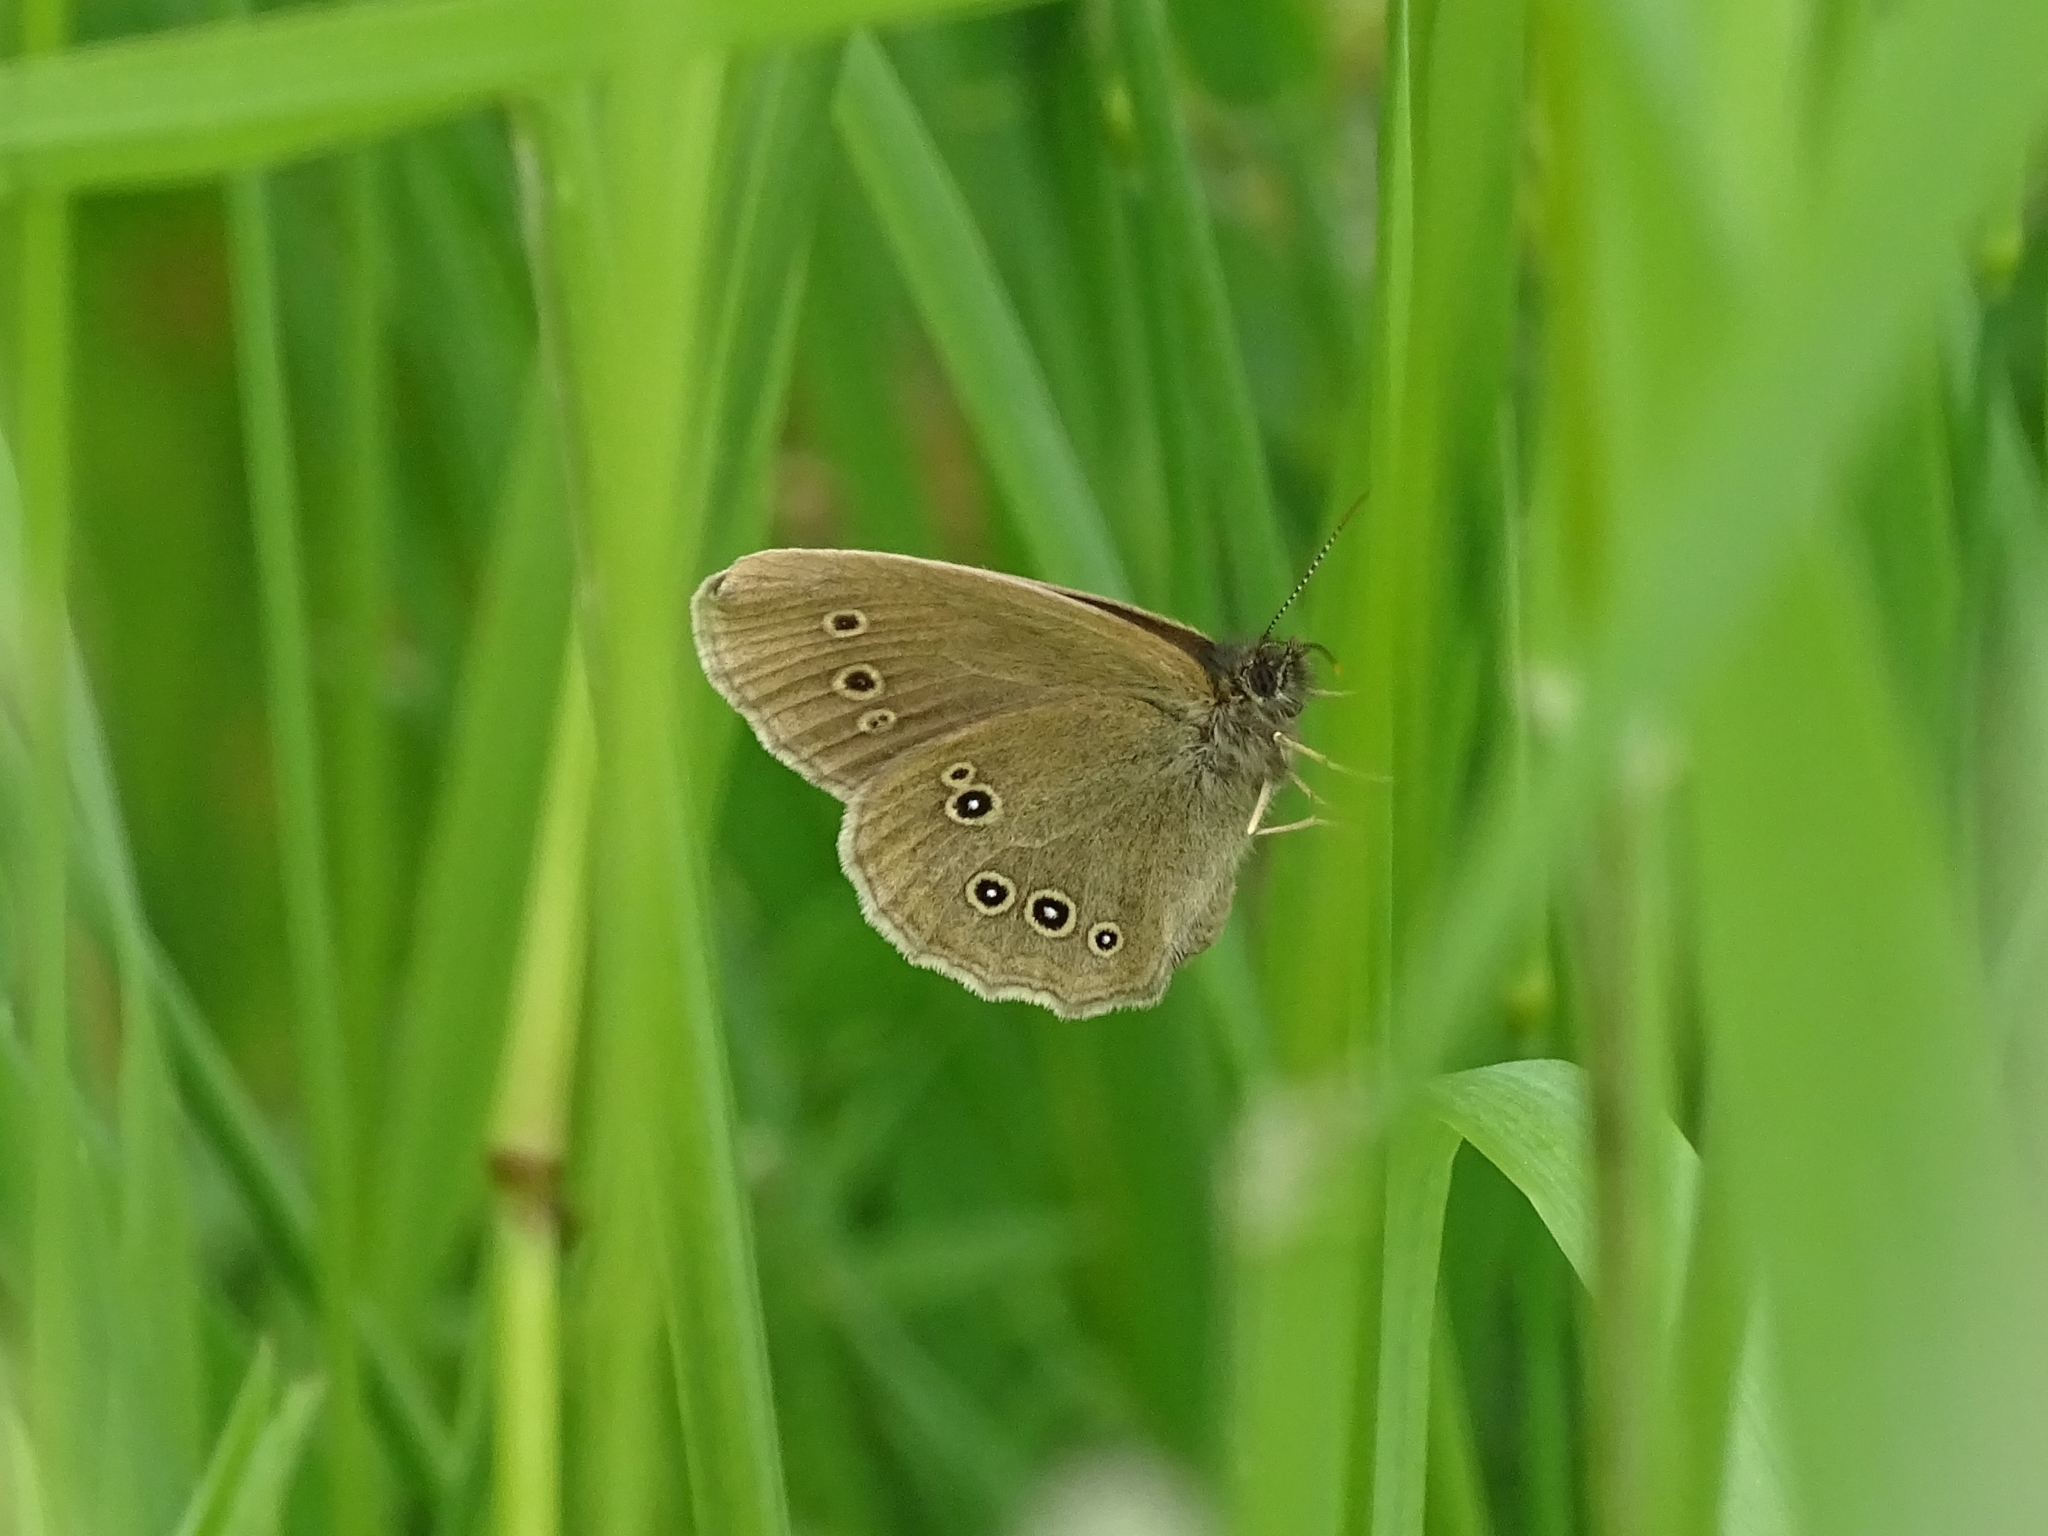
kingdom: Animalia
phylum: Arthropoda
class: Insecta
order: Lepidoptera
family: Nymphalidae
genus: Aphantopus
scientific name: Aphantopus hyperantus
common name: Ringlet
